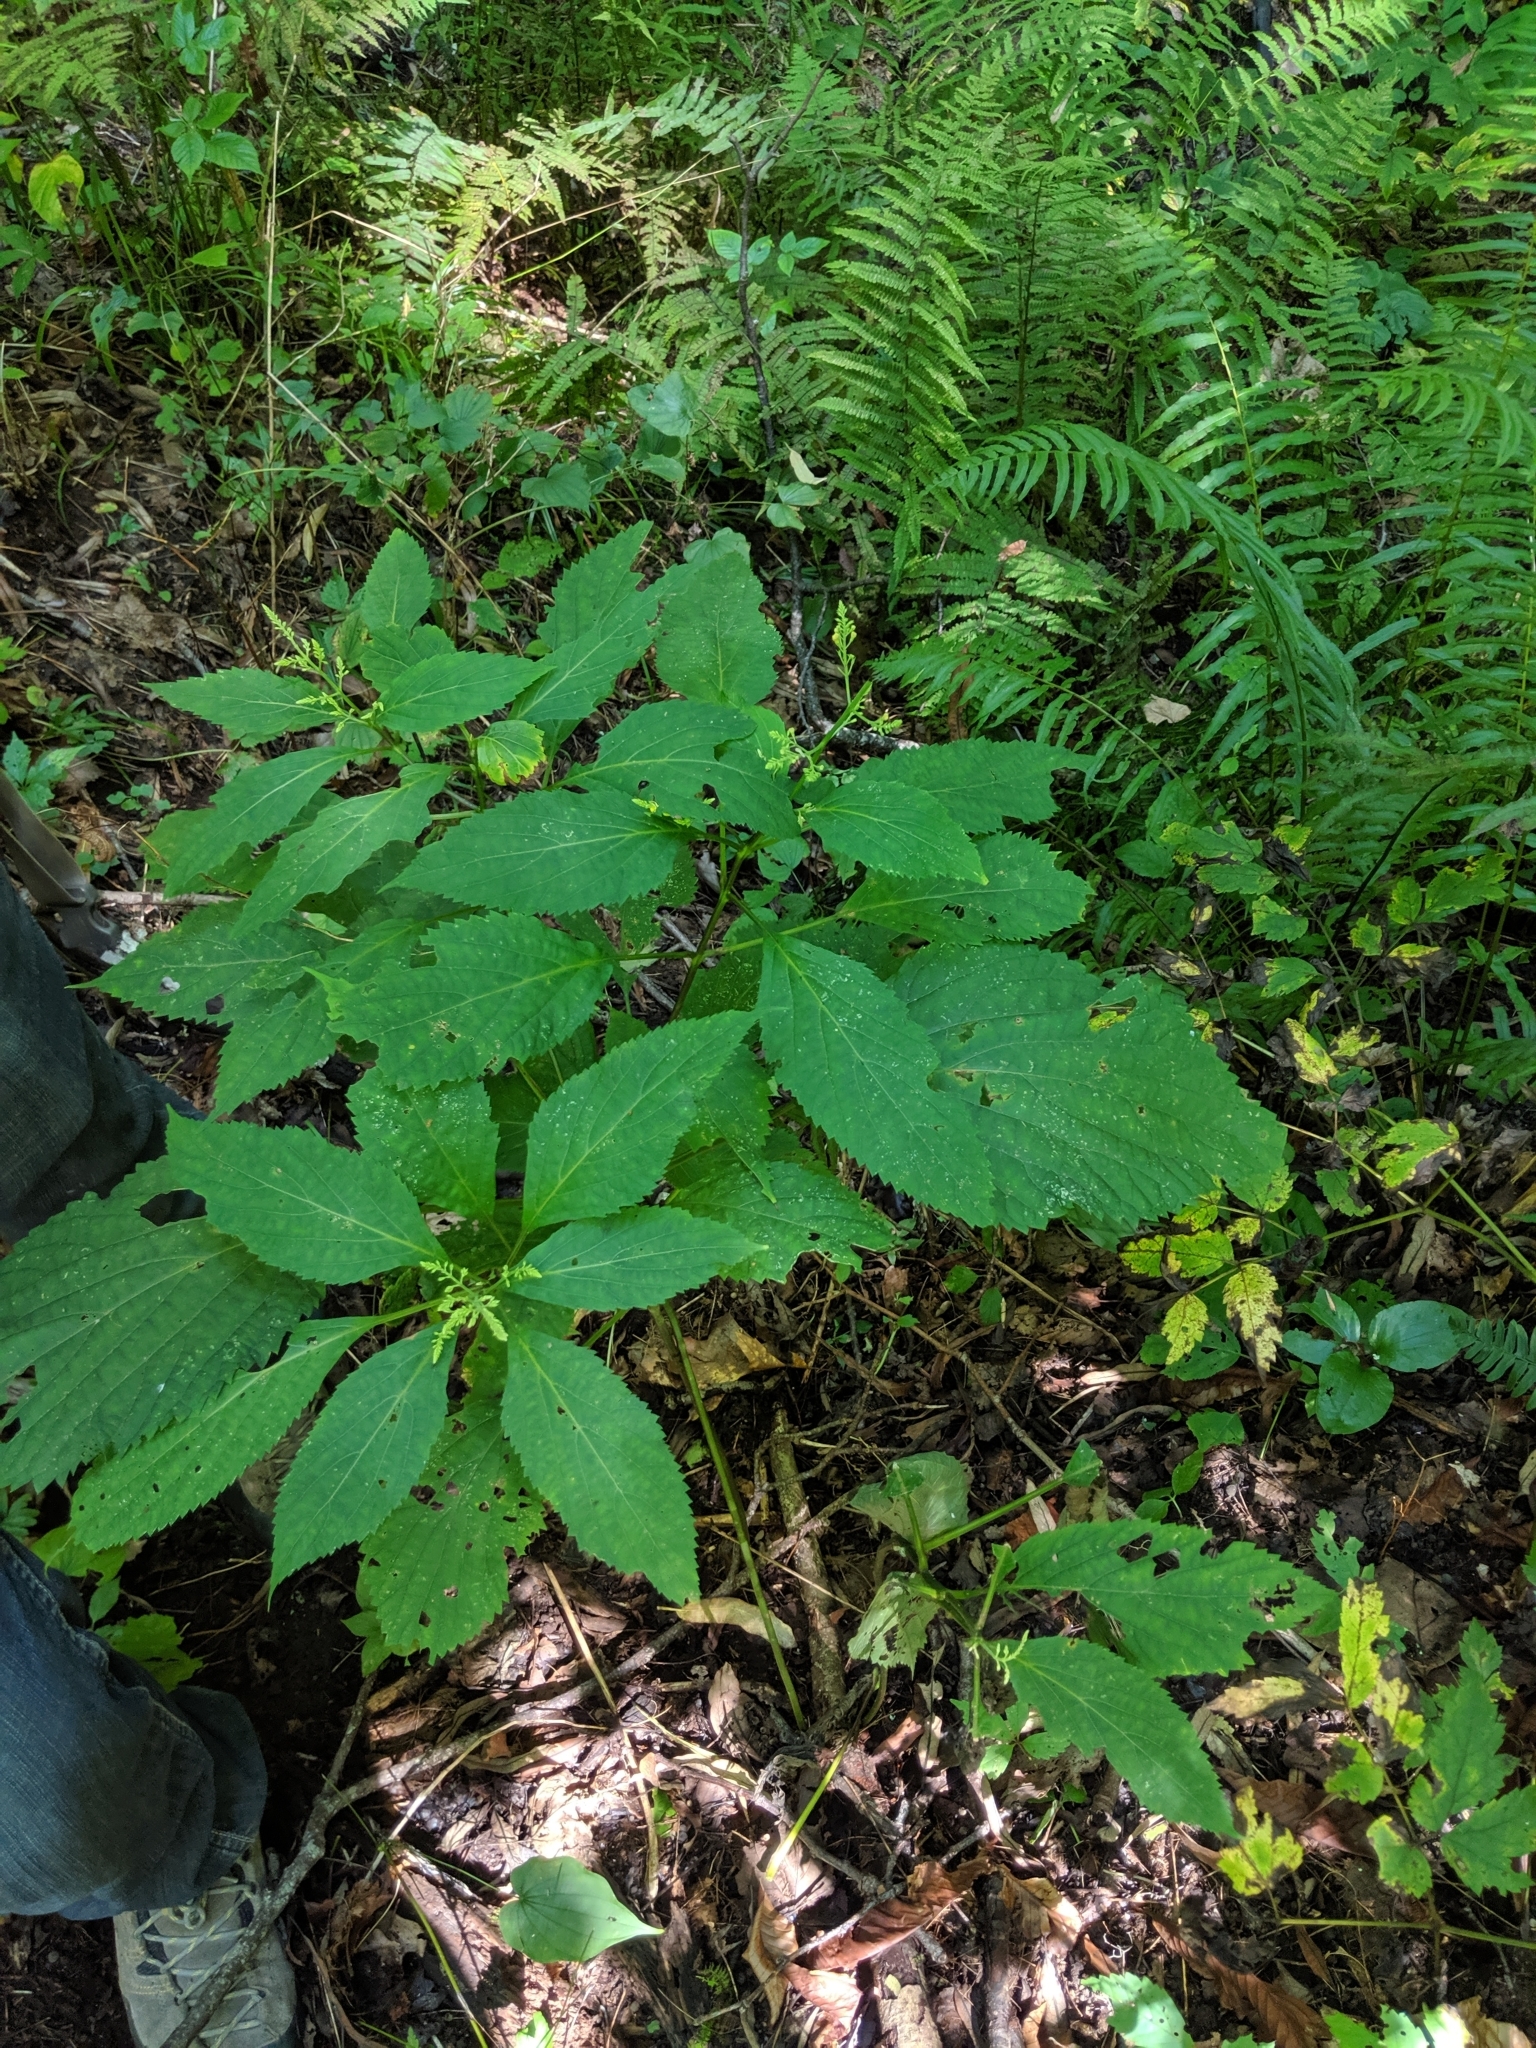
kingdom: Plantae
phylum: Tracheophyta
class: Magnoliopsida
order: Lamiales
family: Lamiaceae
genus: Collinsonia
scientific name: Collinsonia canadensis
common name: Northern horsebalm
